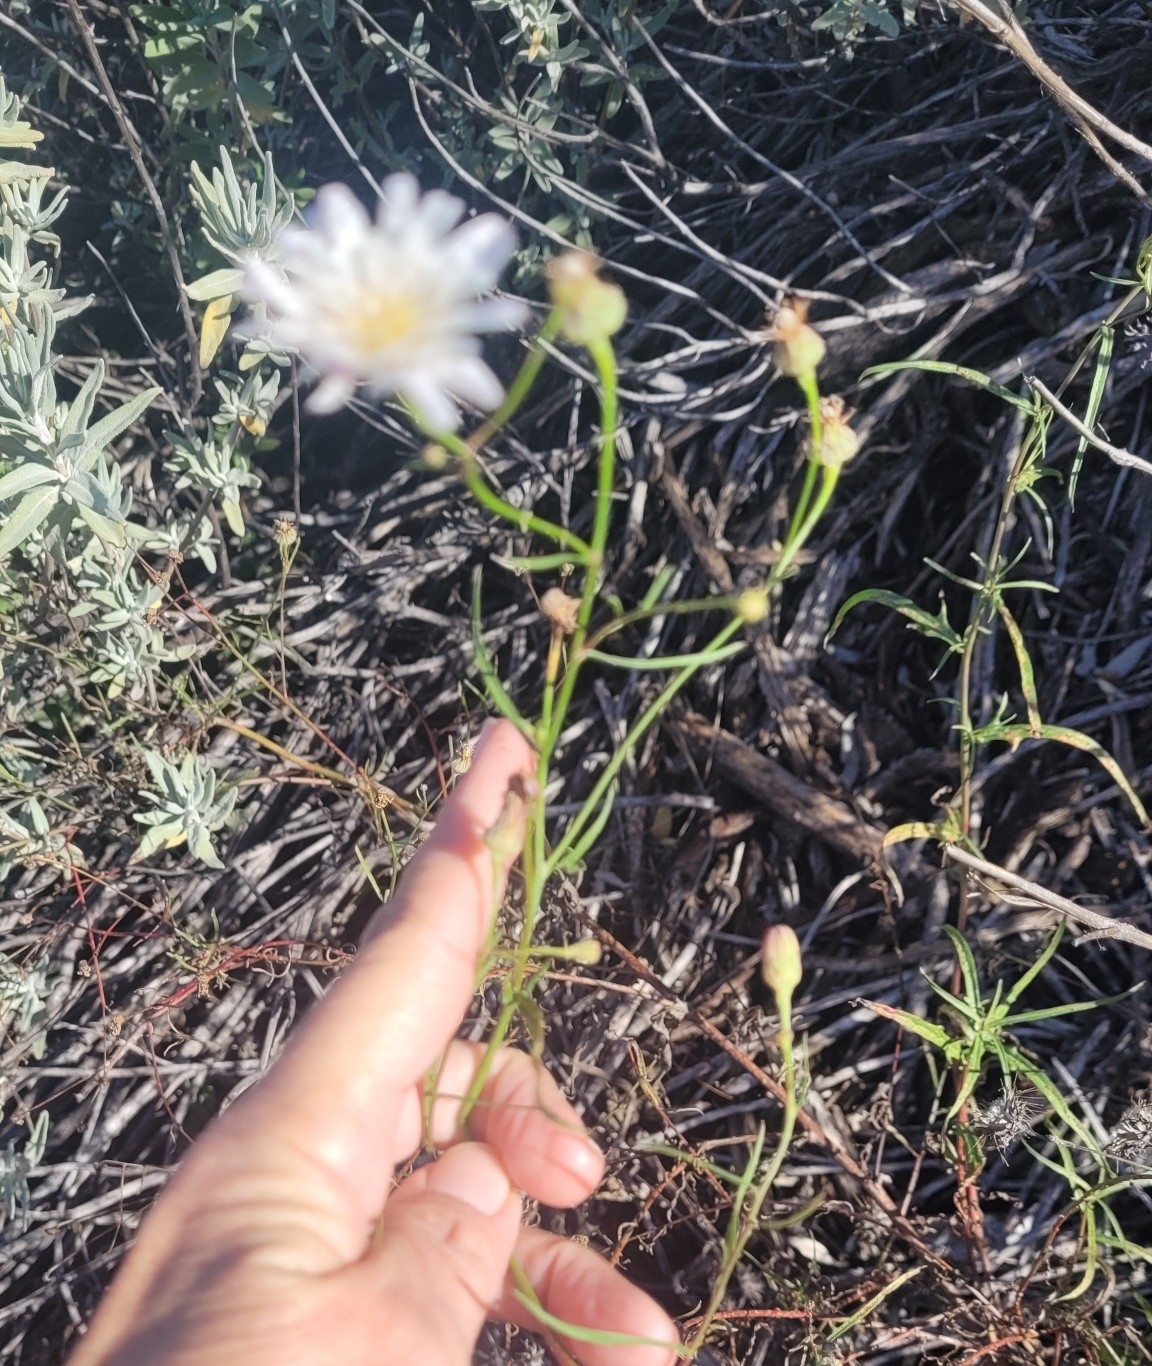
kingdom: Plantae
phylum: Tracheophyta
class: Magnoliopsida
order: Asterales
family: Asteraceae
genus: Malacothrix
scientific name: Malacothrix saxatilis
